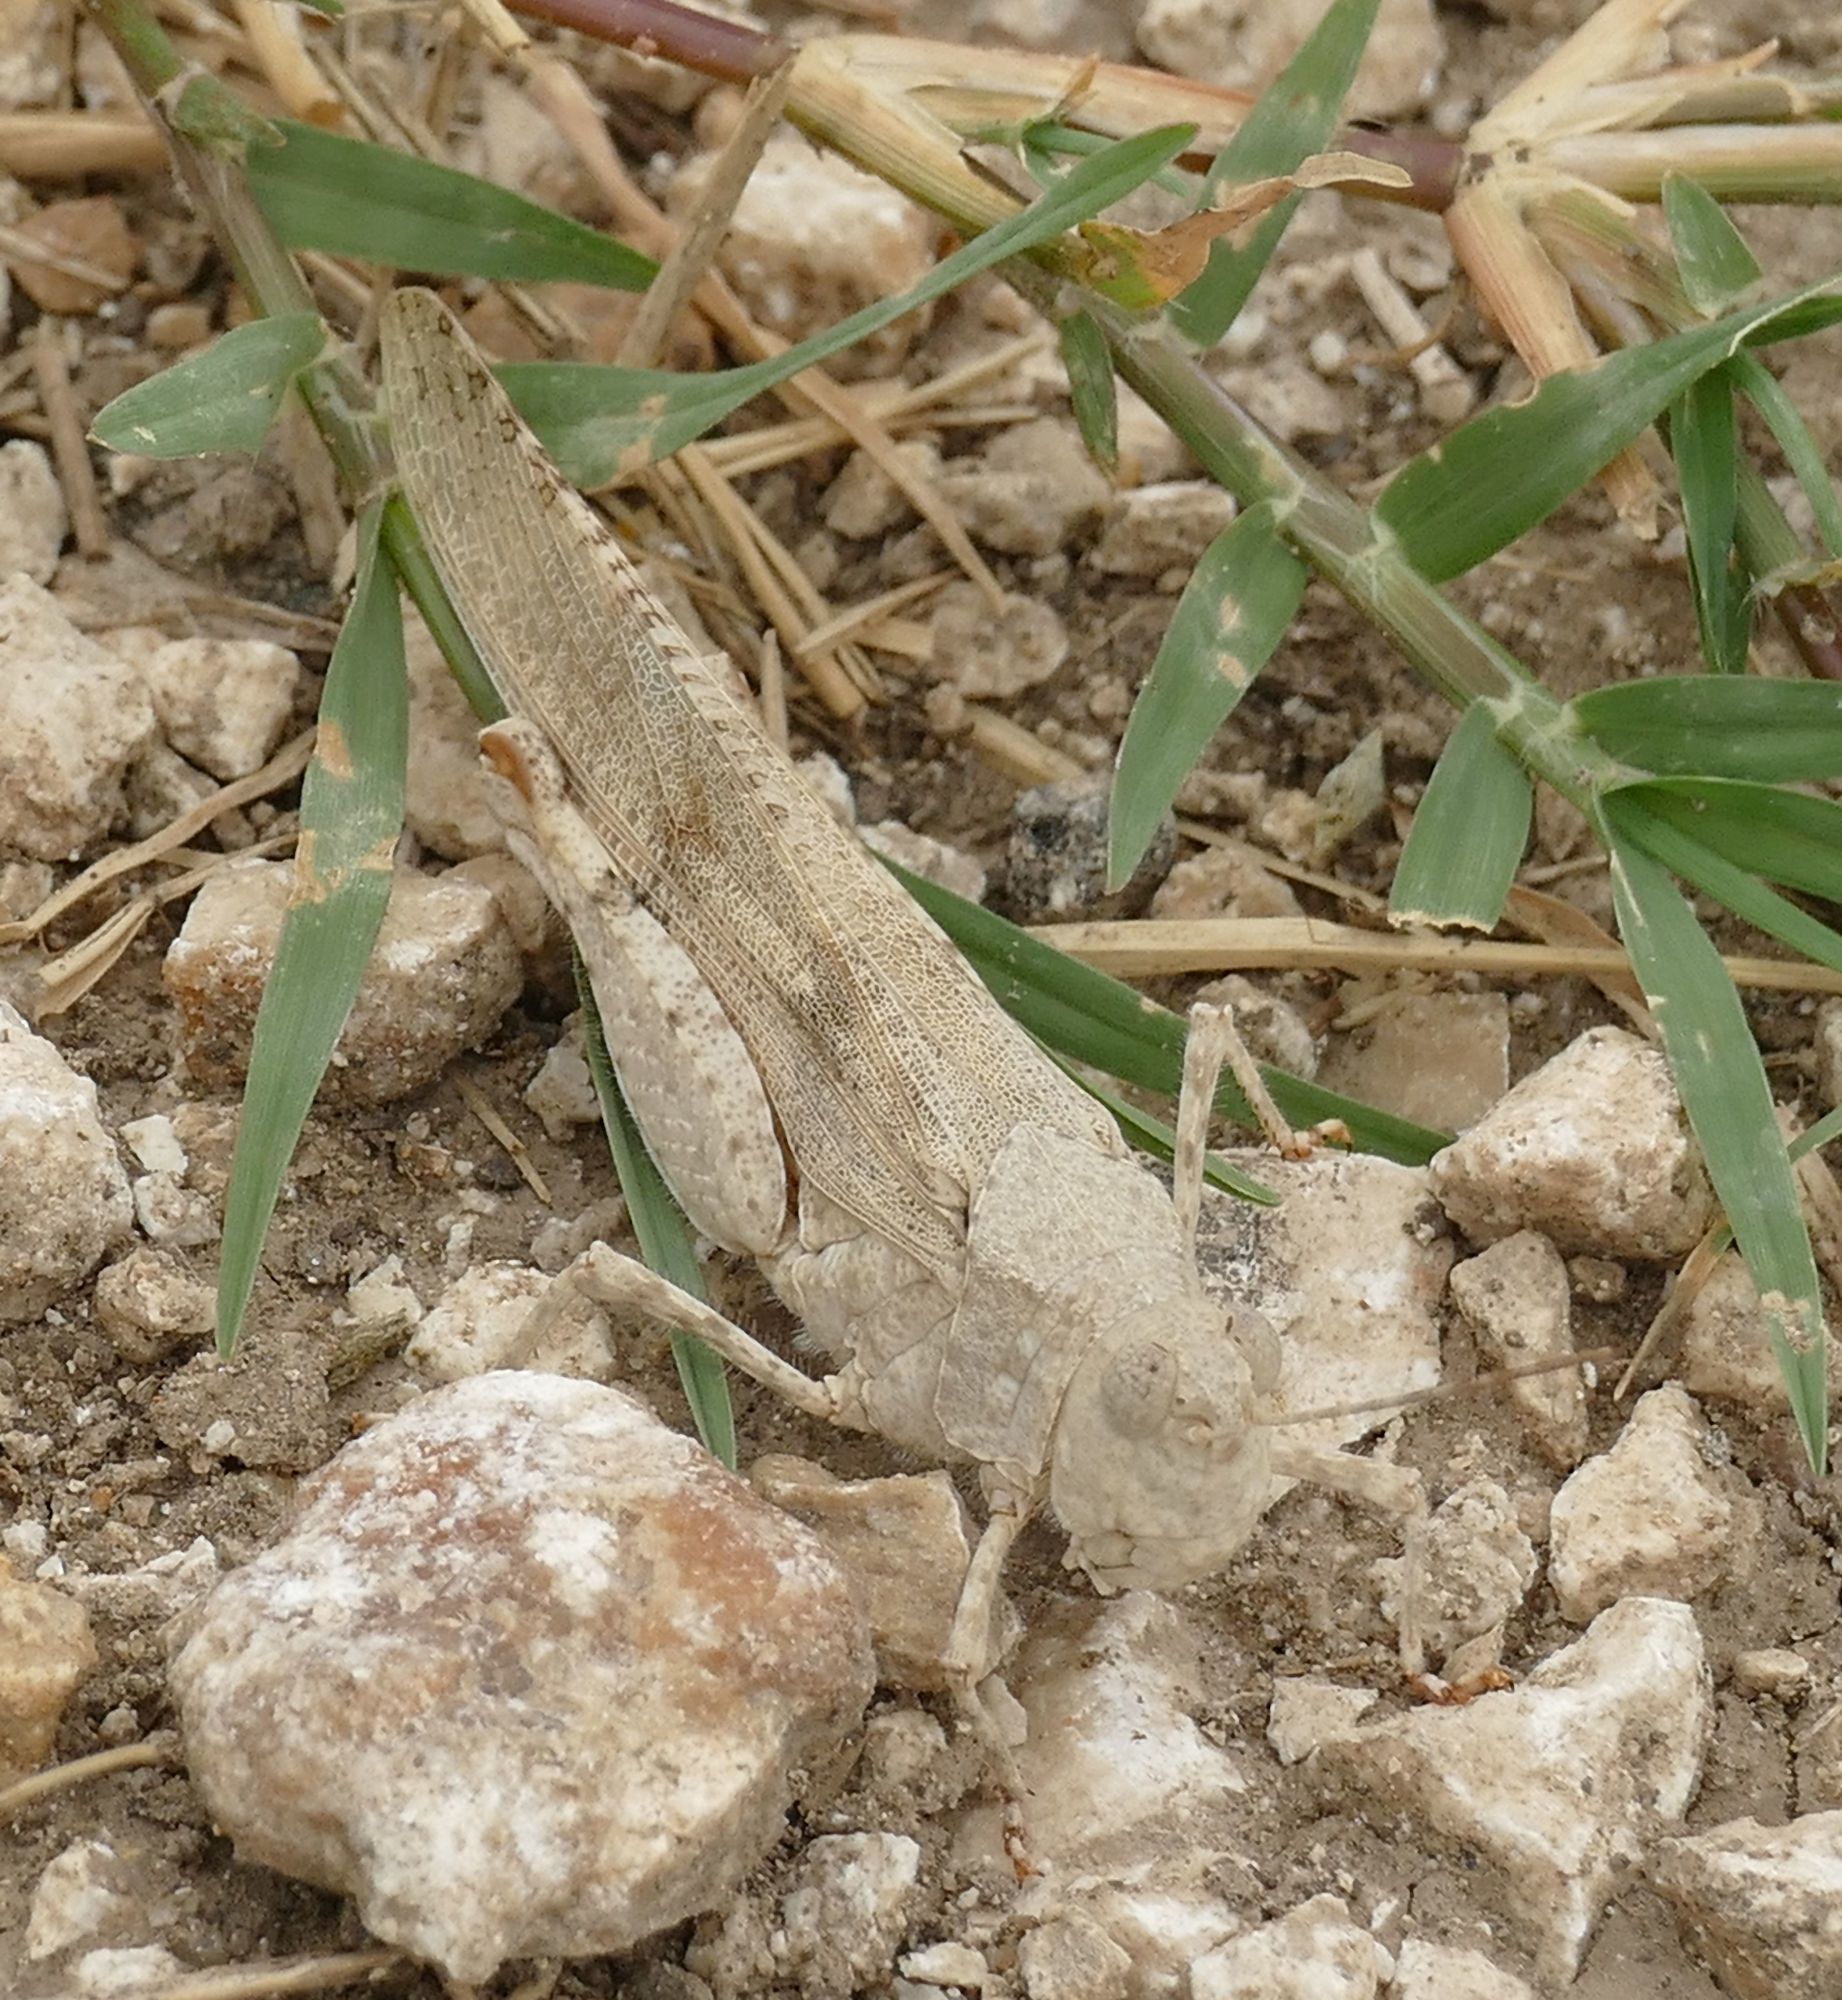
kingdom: Animalia
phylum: Arthropoda
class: Insecta
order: Orthoptera
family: Acrididae
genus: Trimerotropis
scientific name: Trimerotropis maritima
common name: Seaside locust
